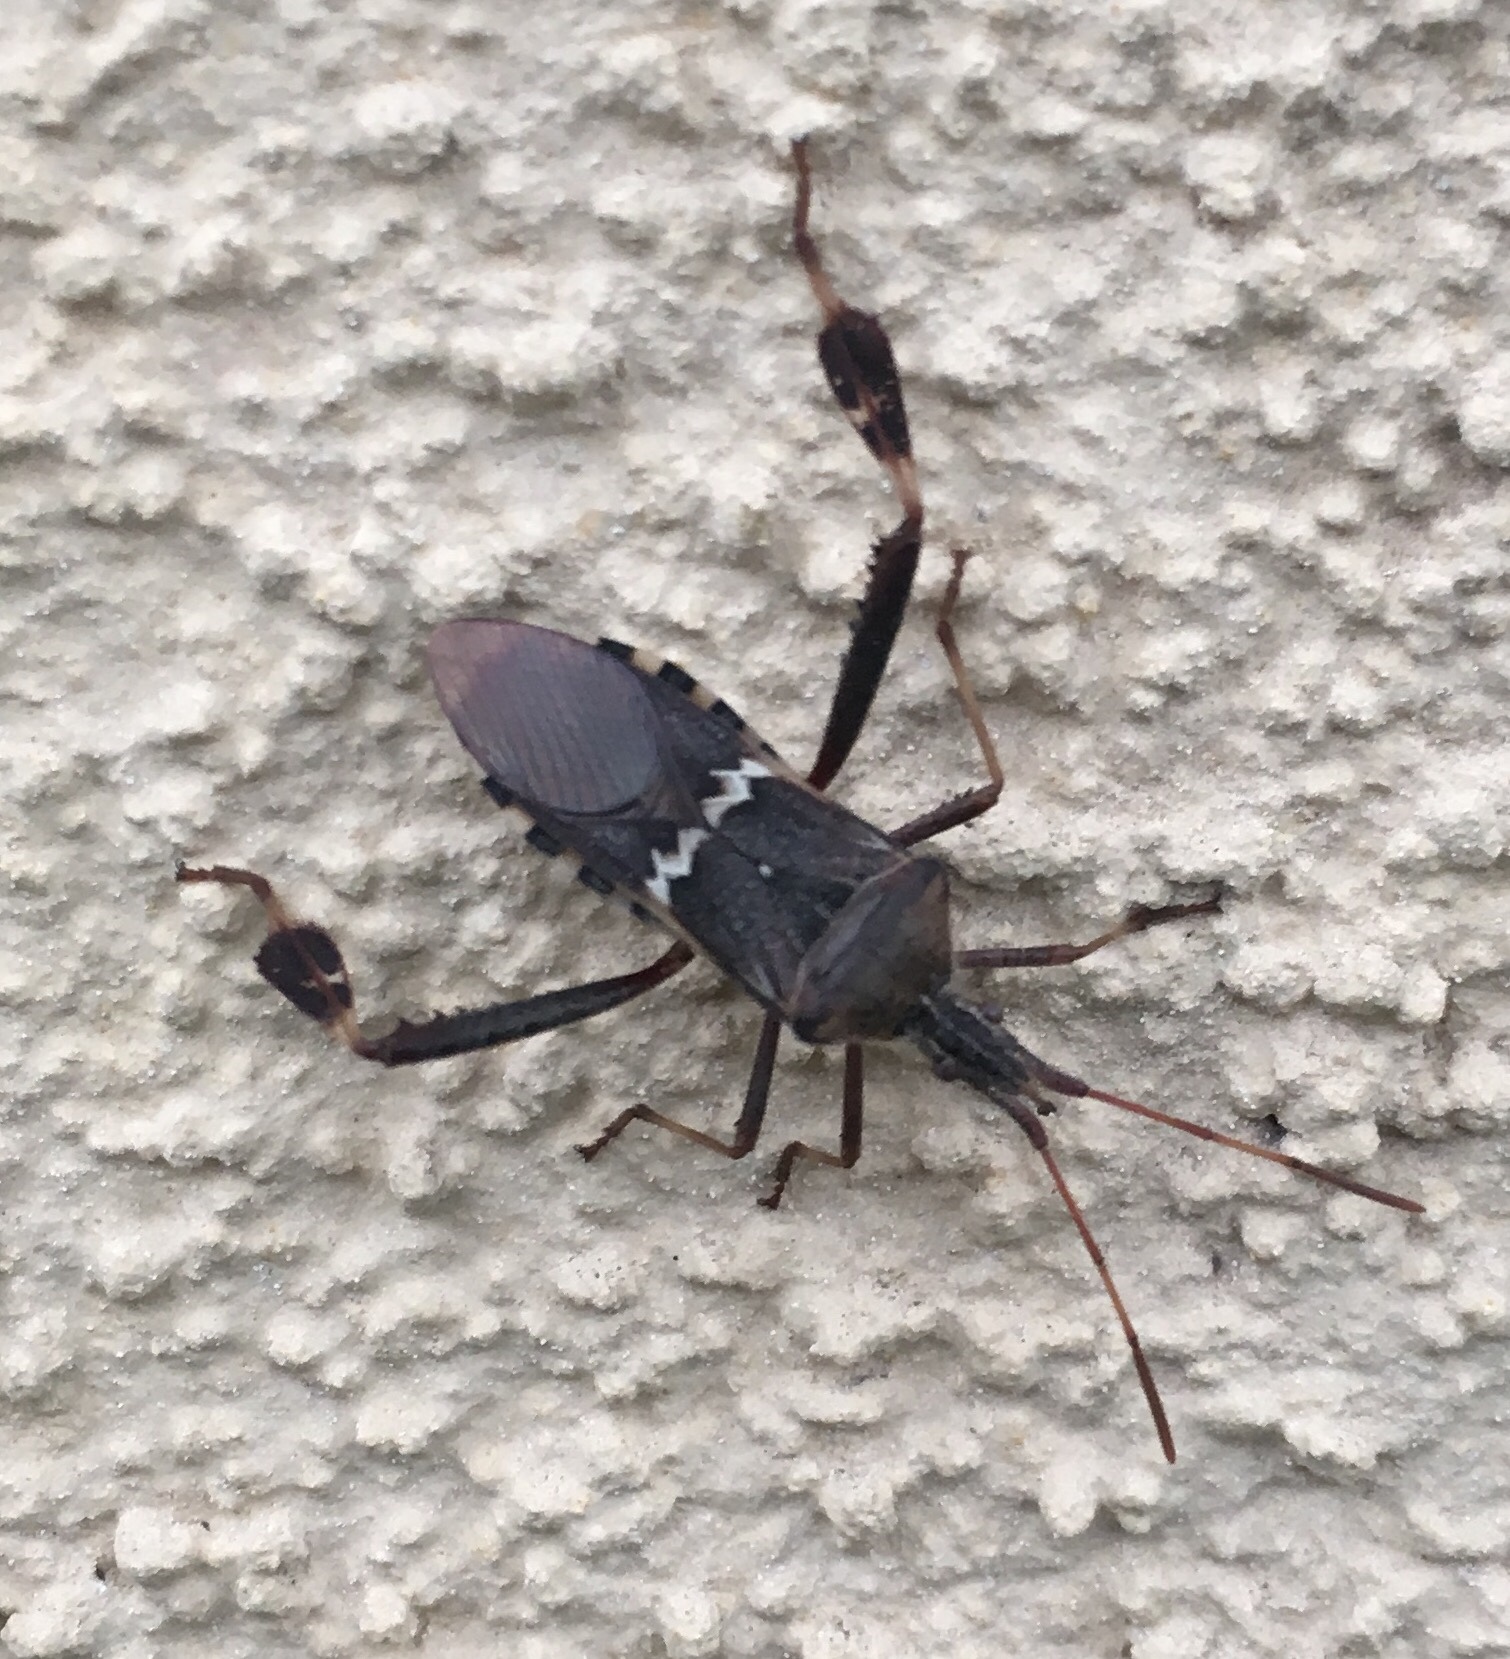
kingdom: Animalia
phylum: Arthropoda
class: Insecta
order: Hemiptera
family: Coreidae
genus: Leptoglossus
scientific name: Leptoglossus clypealis
